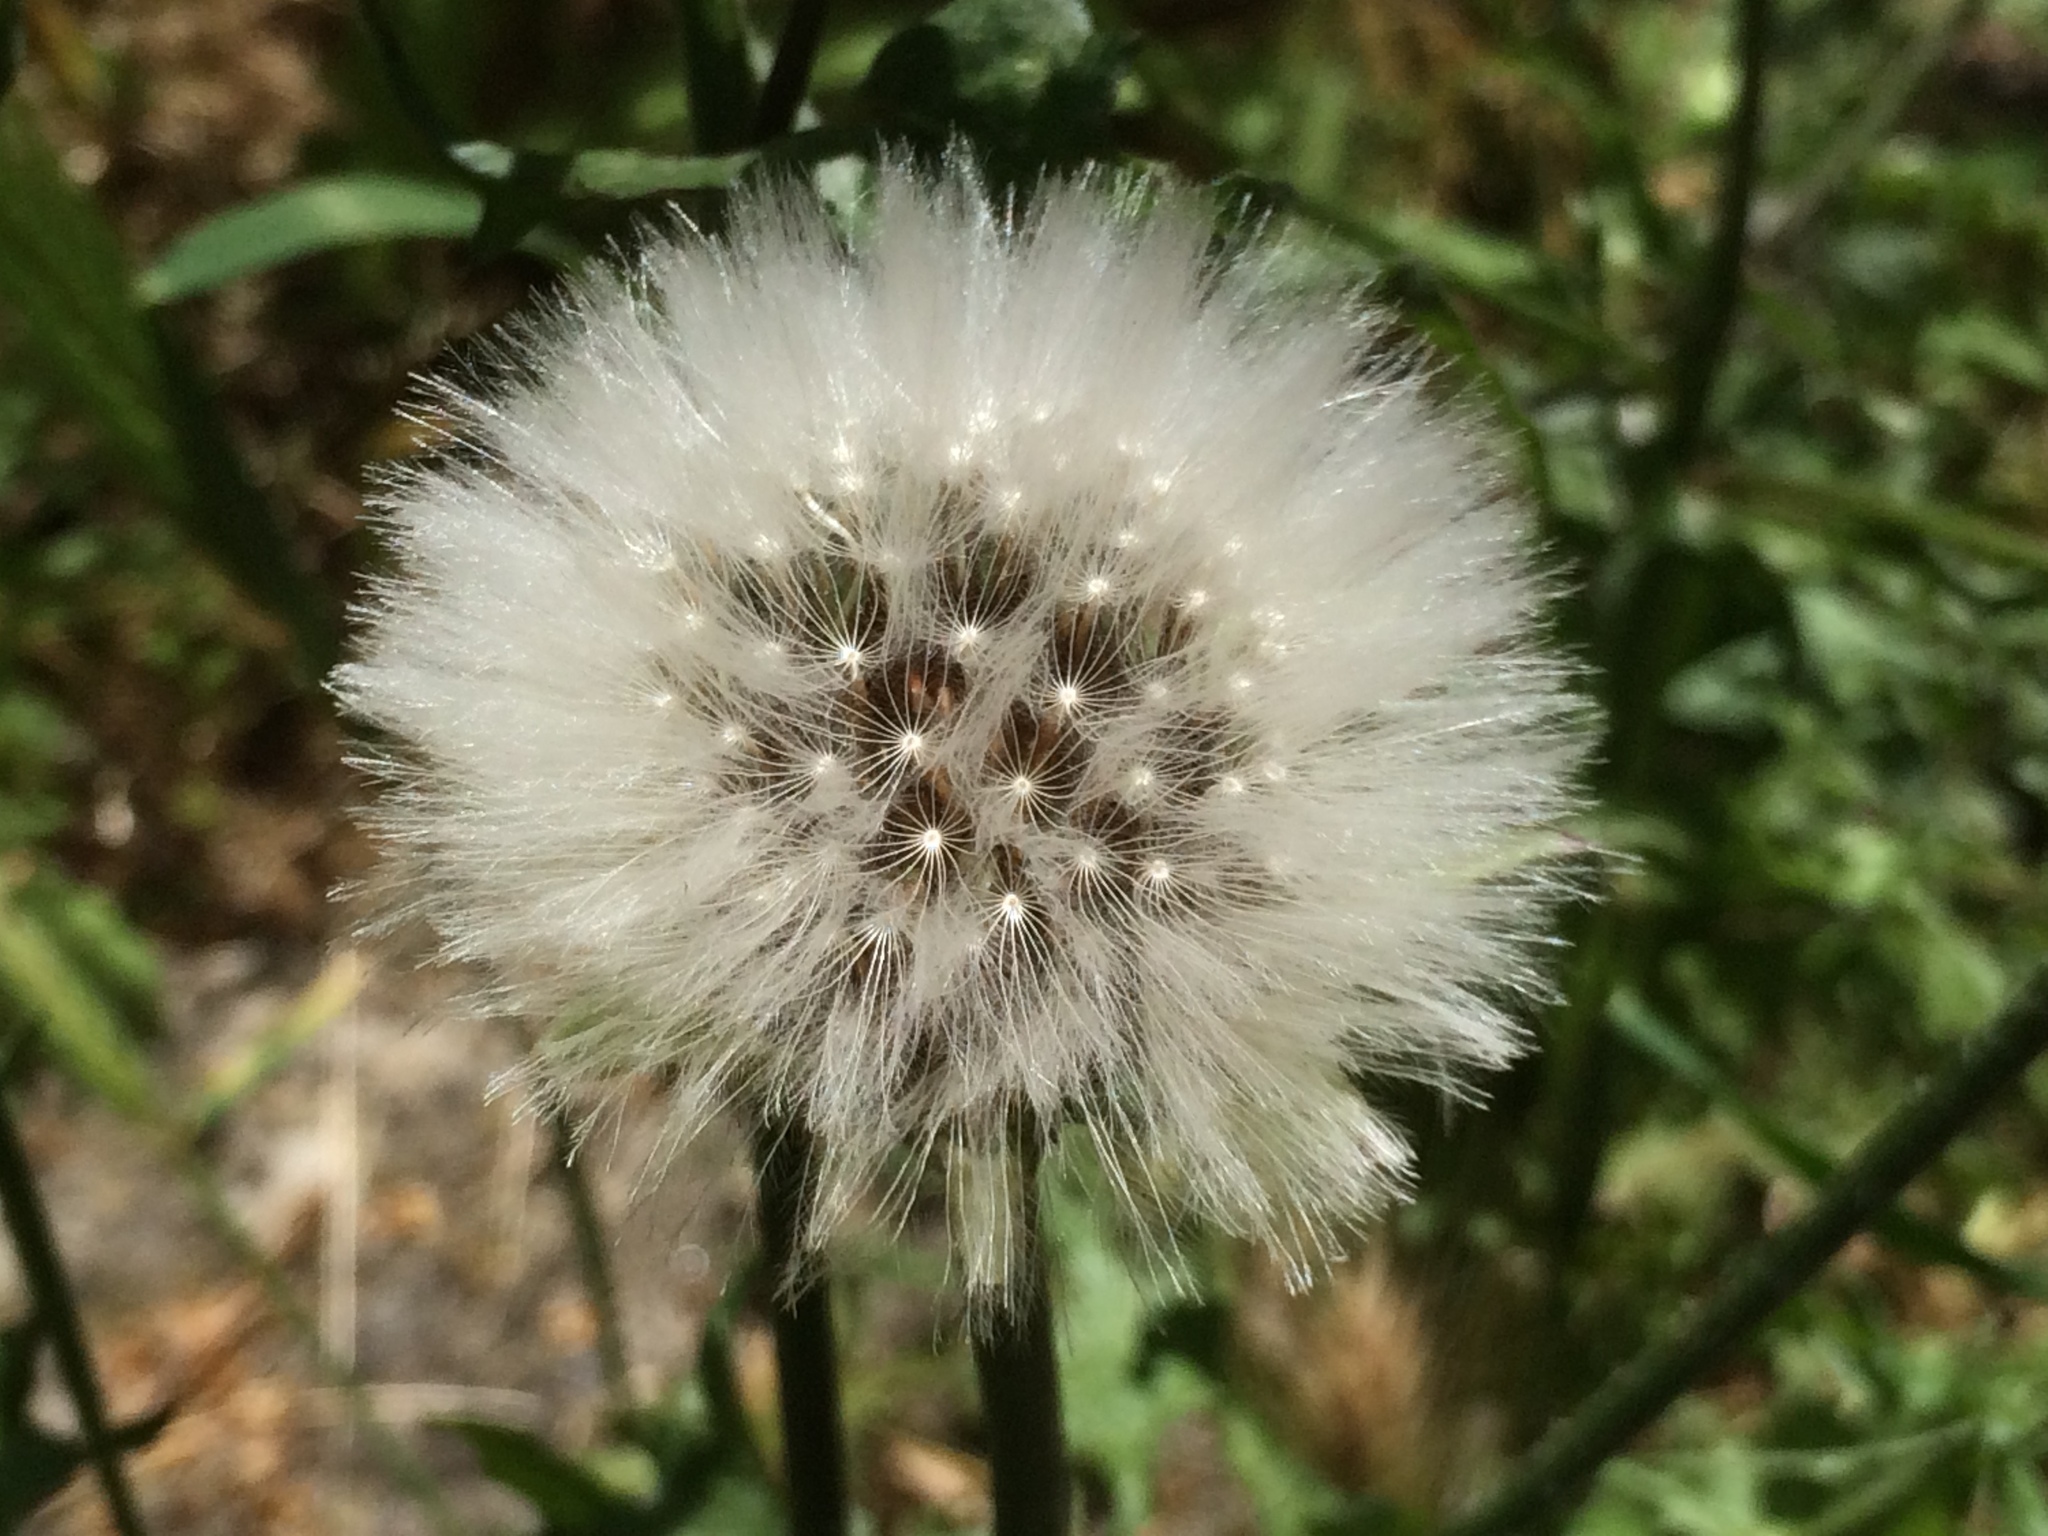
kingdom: Plantae
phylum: Tracheophyta
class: Magnoliopsida
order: Asterales
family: Asteraceae
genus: Urospermum
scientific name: Urospermum picroides
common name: False hawkbit
